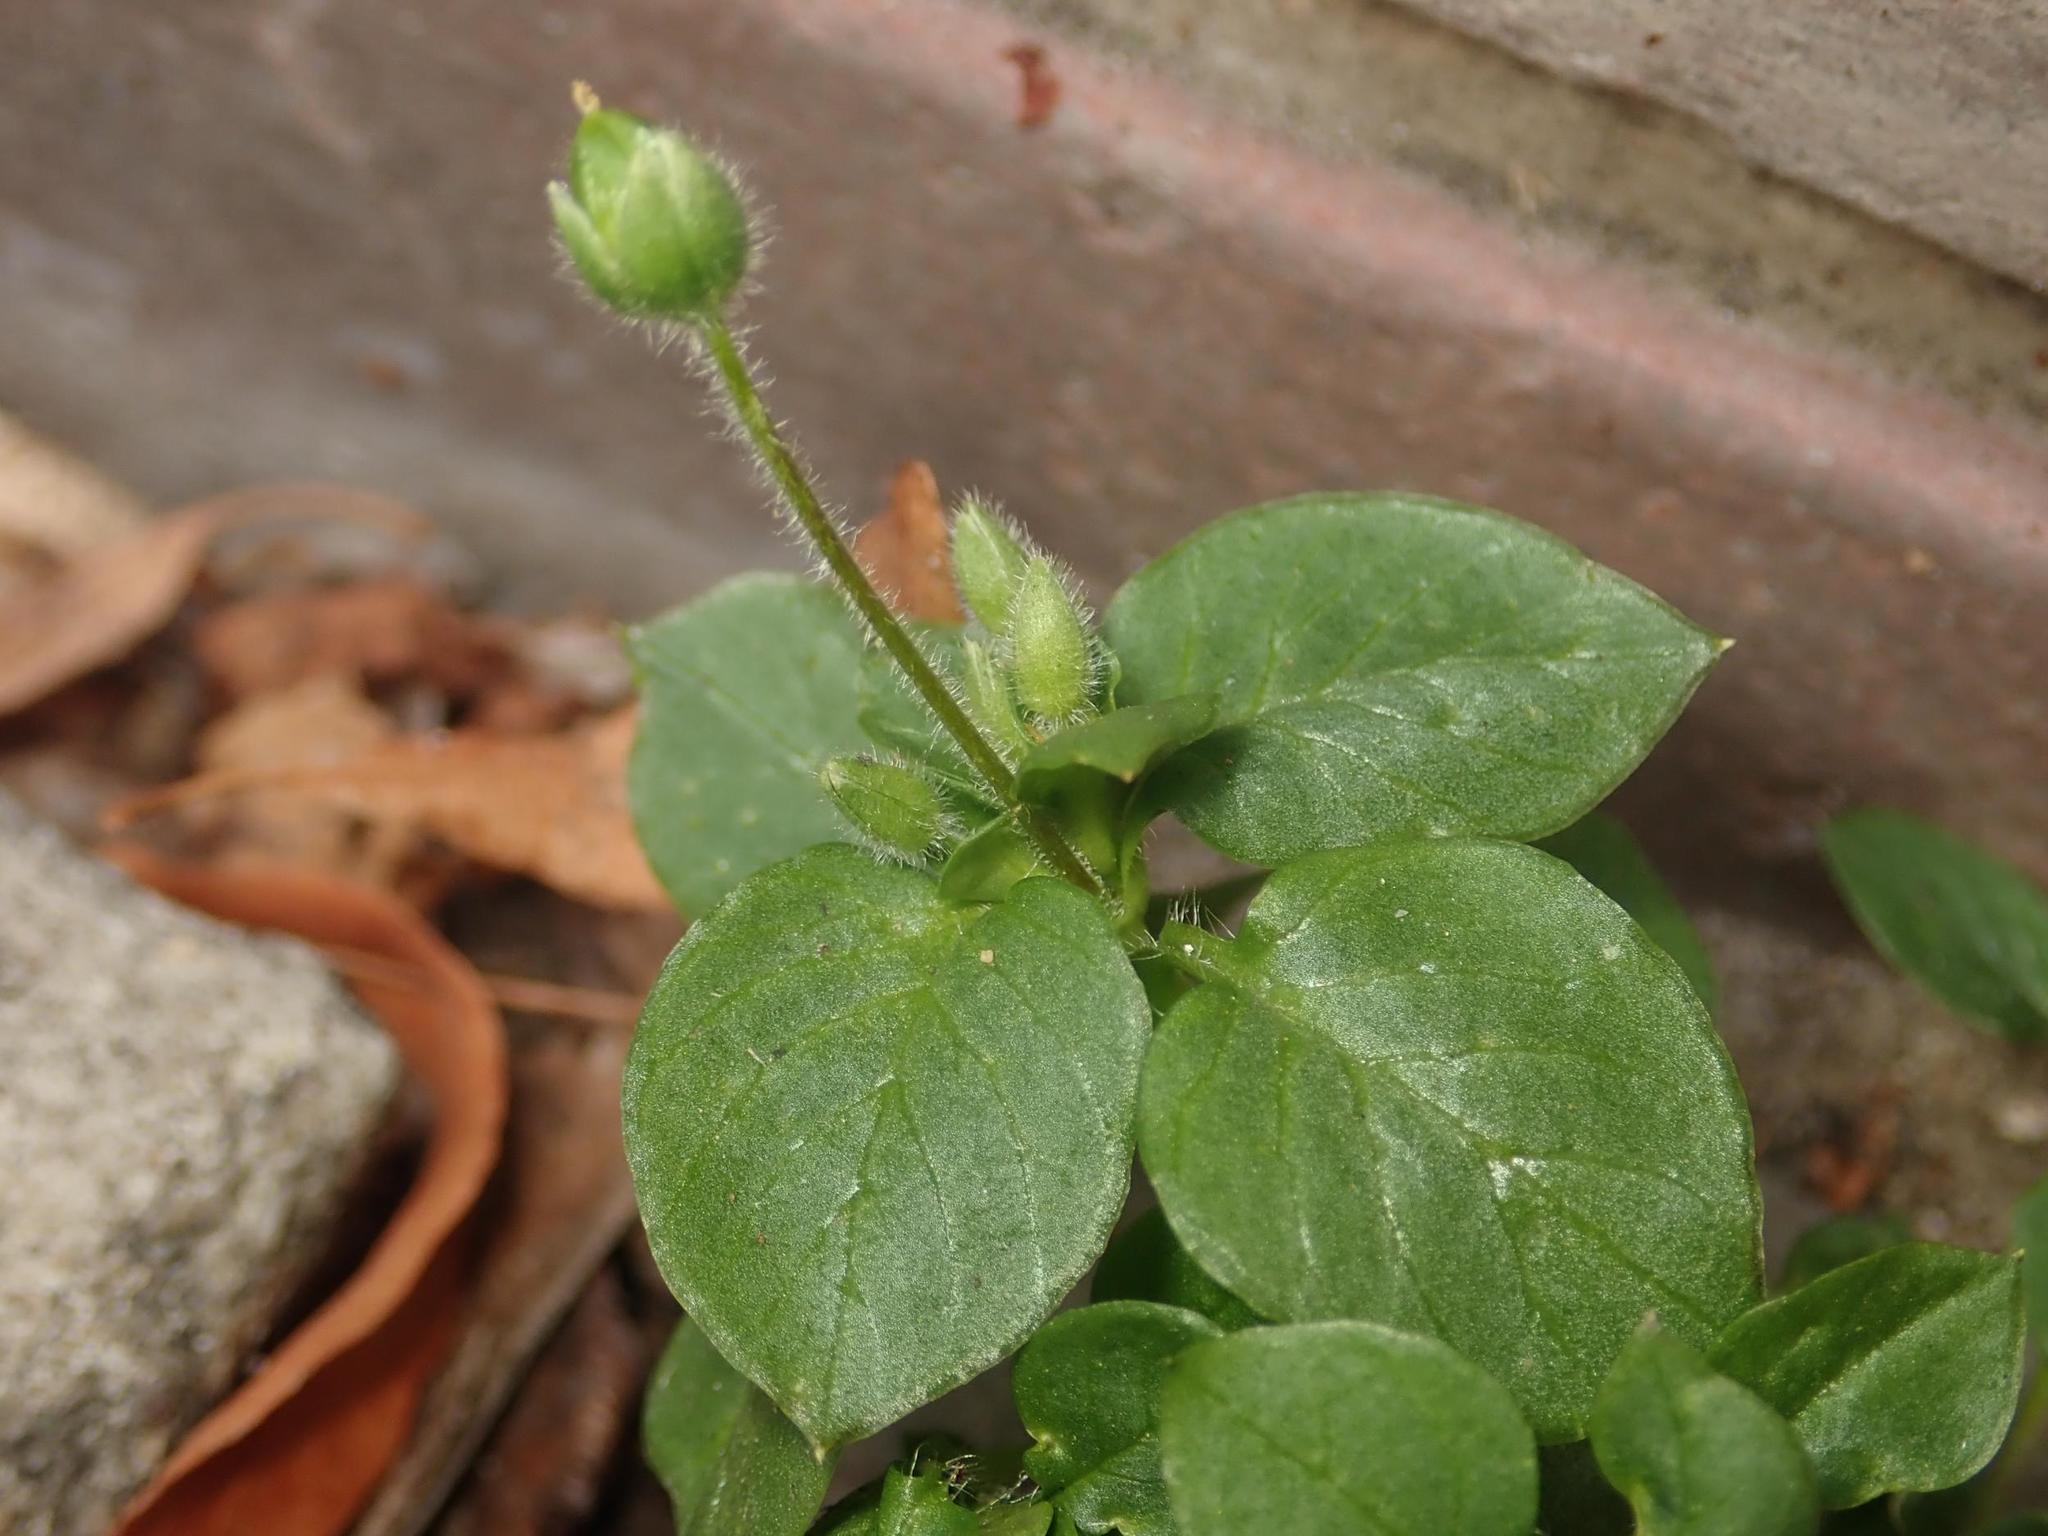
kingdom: Plantae
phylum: Tracheophyta
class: Magnoliopsida
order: Caryophyllales
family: Caryophyllaceae
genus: Stellaria
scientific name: Stellaria media
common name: Common chickweed
